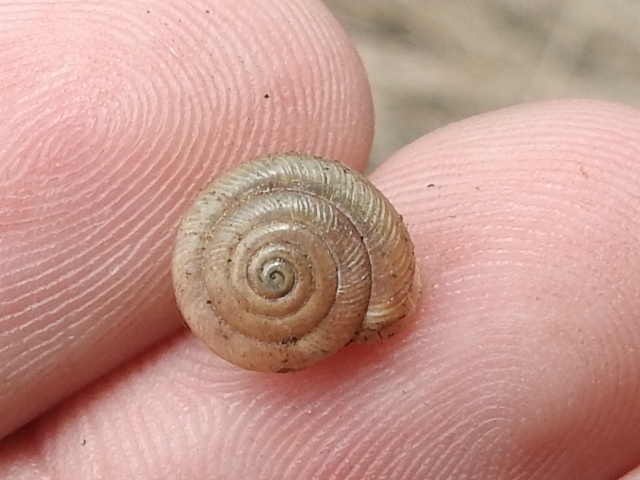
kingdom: Animalia
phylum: Mollusca
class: Gastropoda
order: Stylommatophora
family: Polygyridae
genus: Linisa
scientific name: Linisa texasiana
